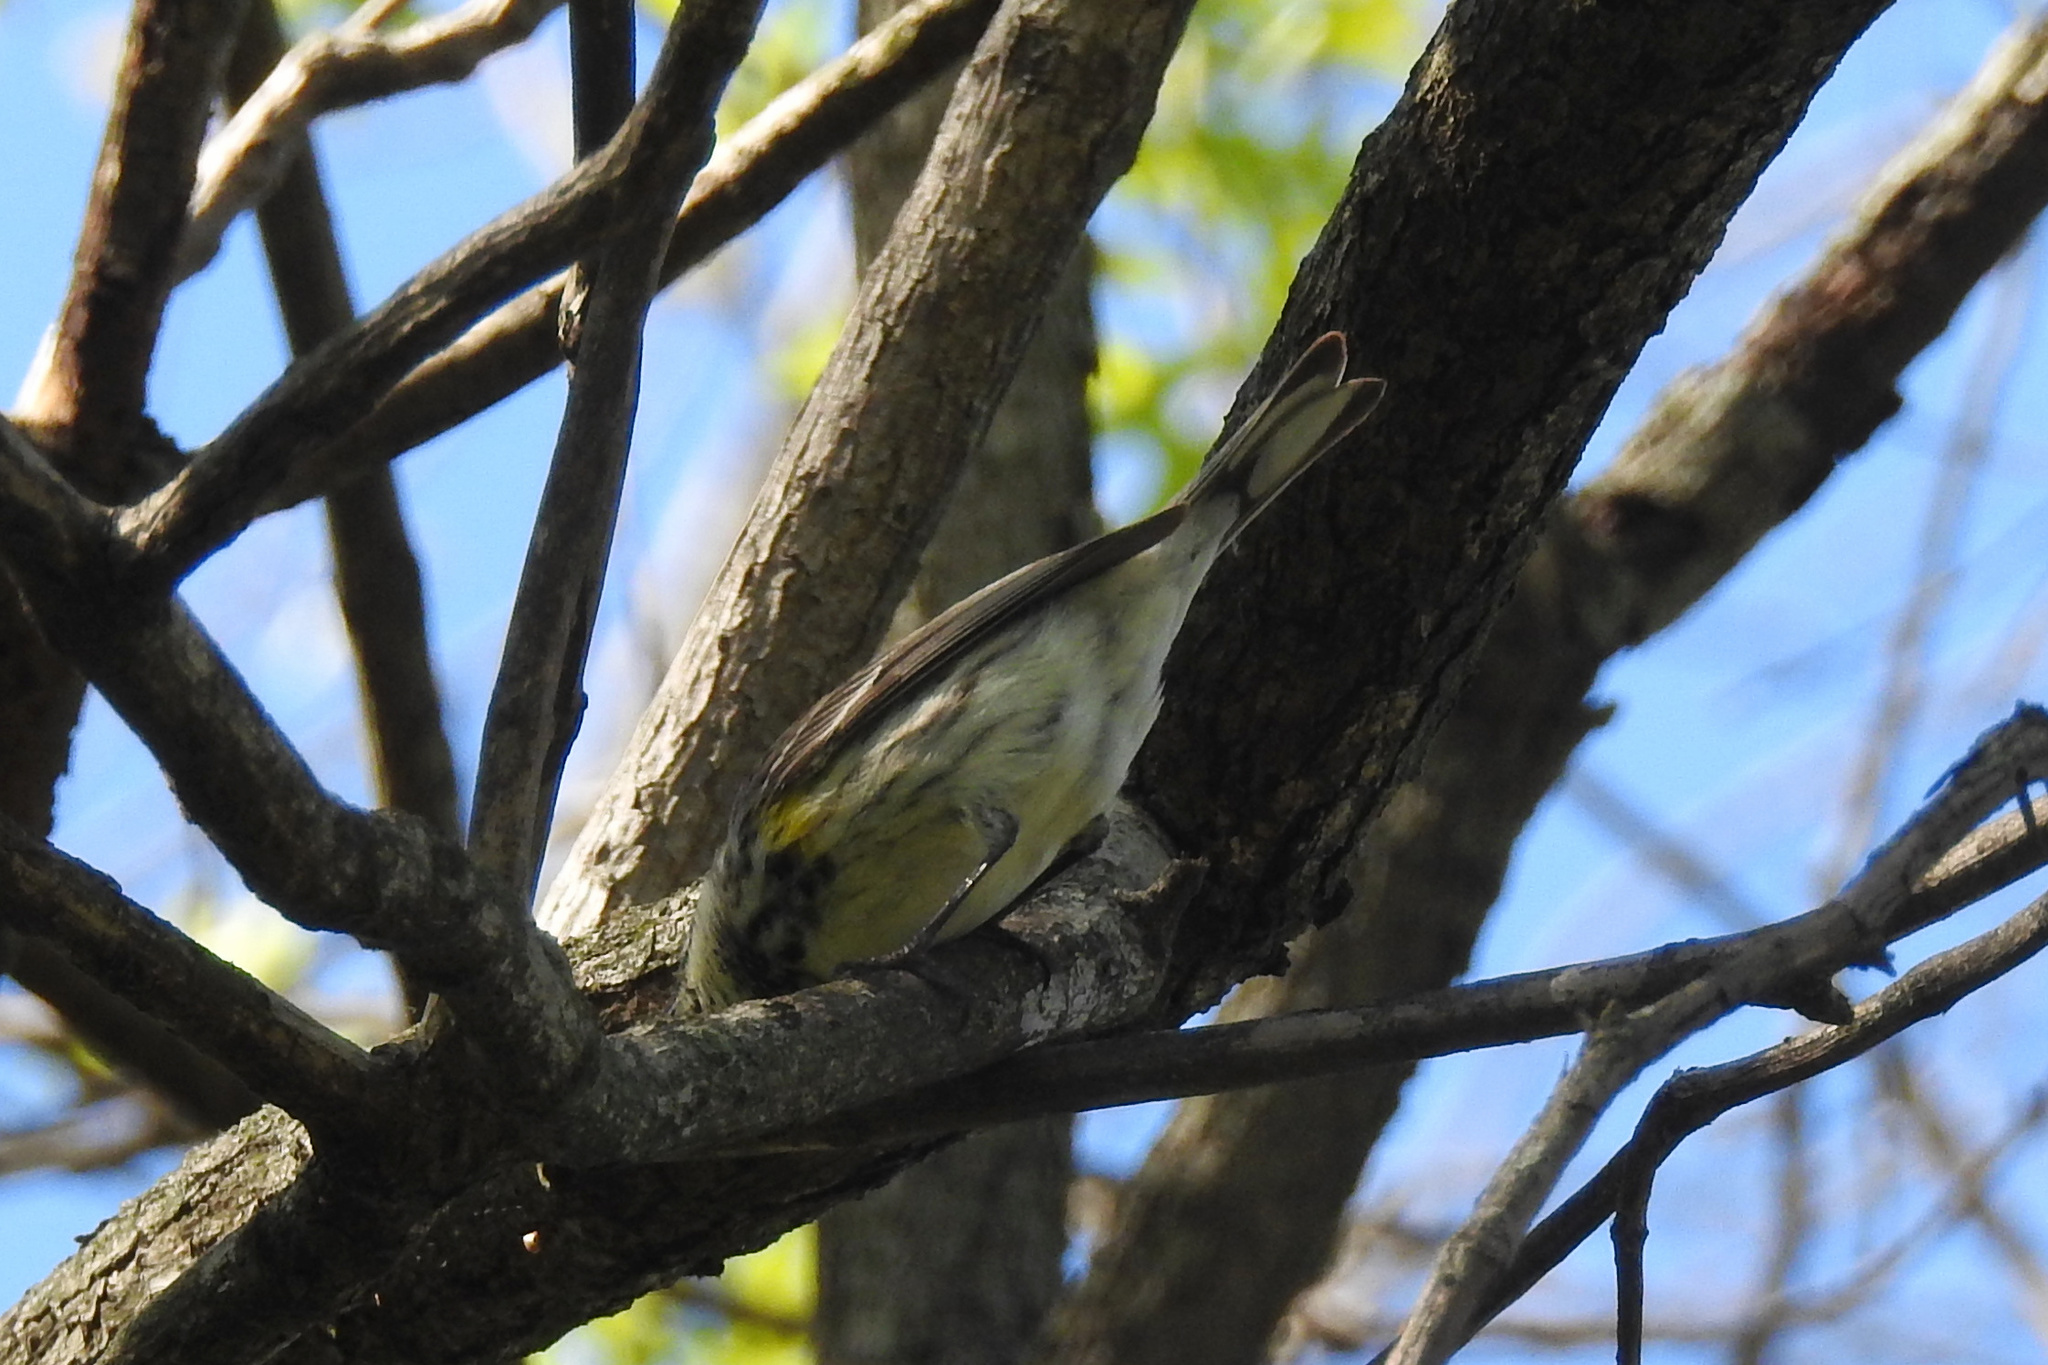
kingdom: Animalia
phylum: Chordata
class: Aves
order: Passeriformes
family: Parulidae
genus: Setophaga
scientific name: Setophaga coronata
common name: Myrtle warbler
